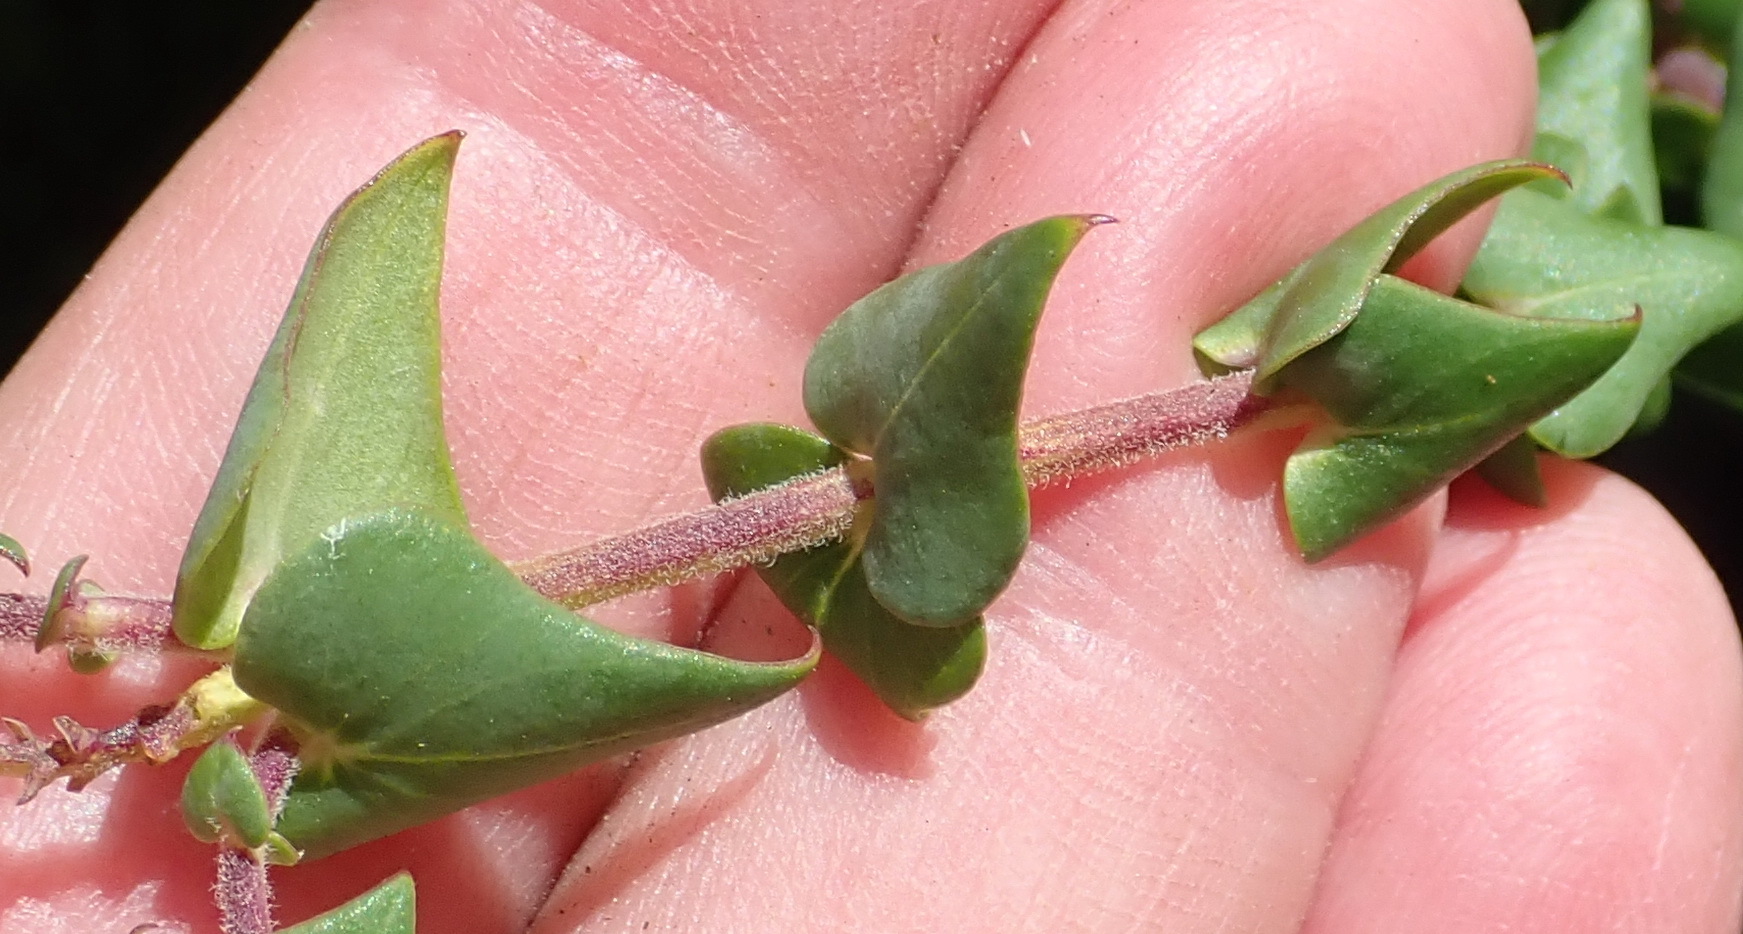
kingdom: Plantae
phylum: Tracheophyta
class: Magnoliopsida
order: Fabales
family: Polygalaceae
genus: Polygala
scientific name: Polygala fruticosa
